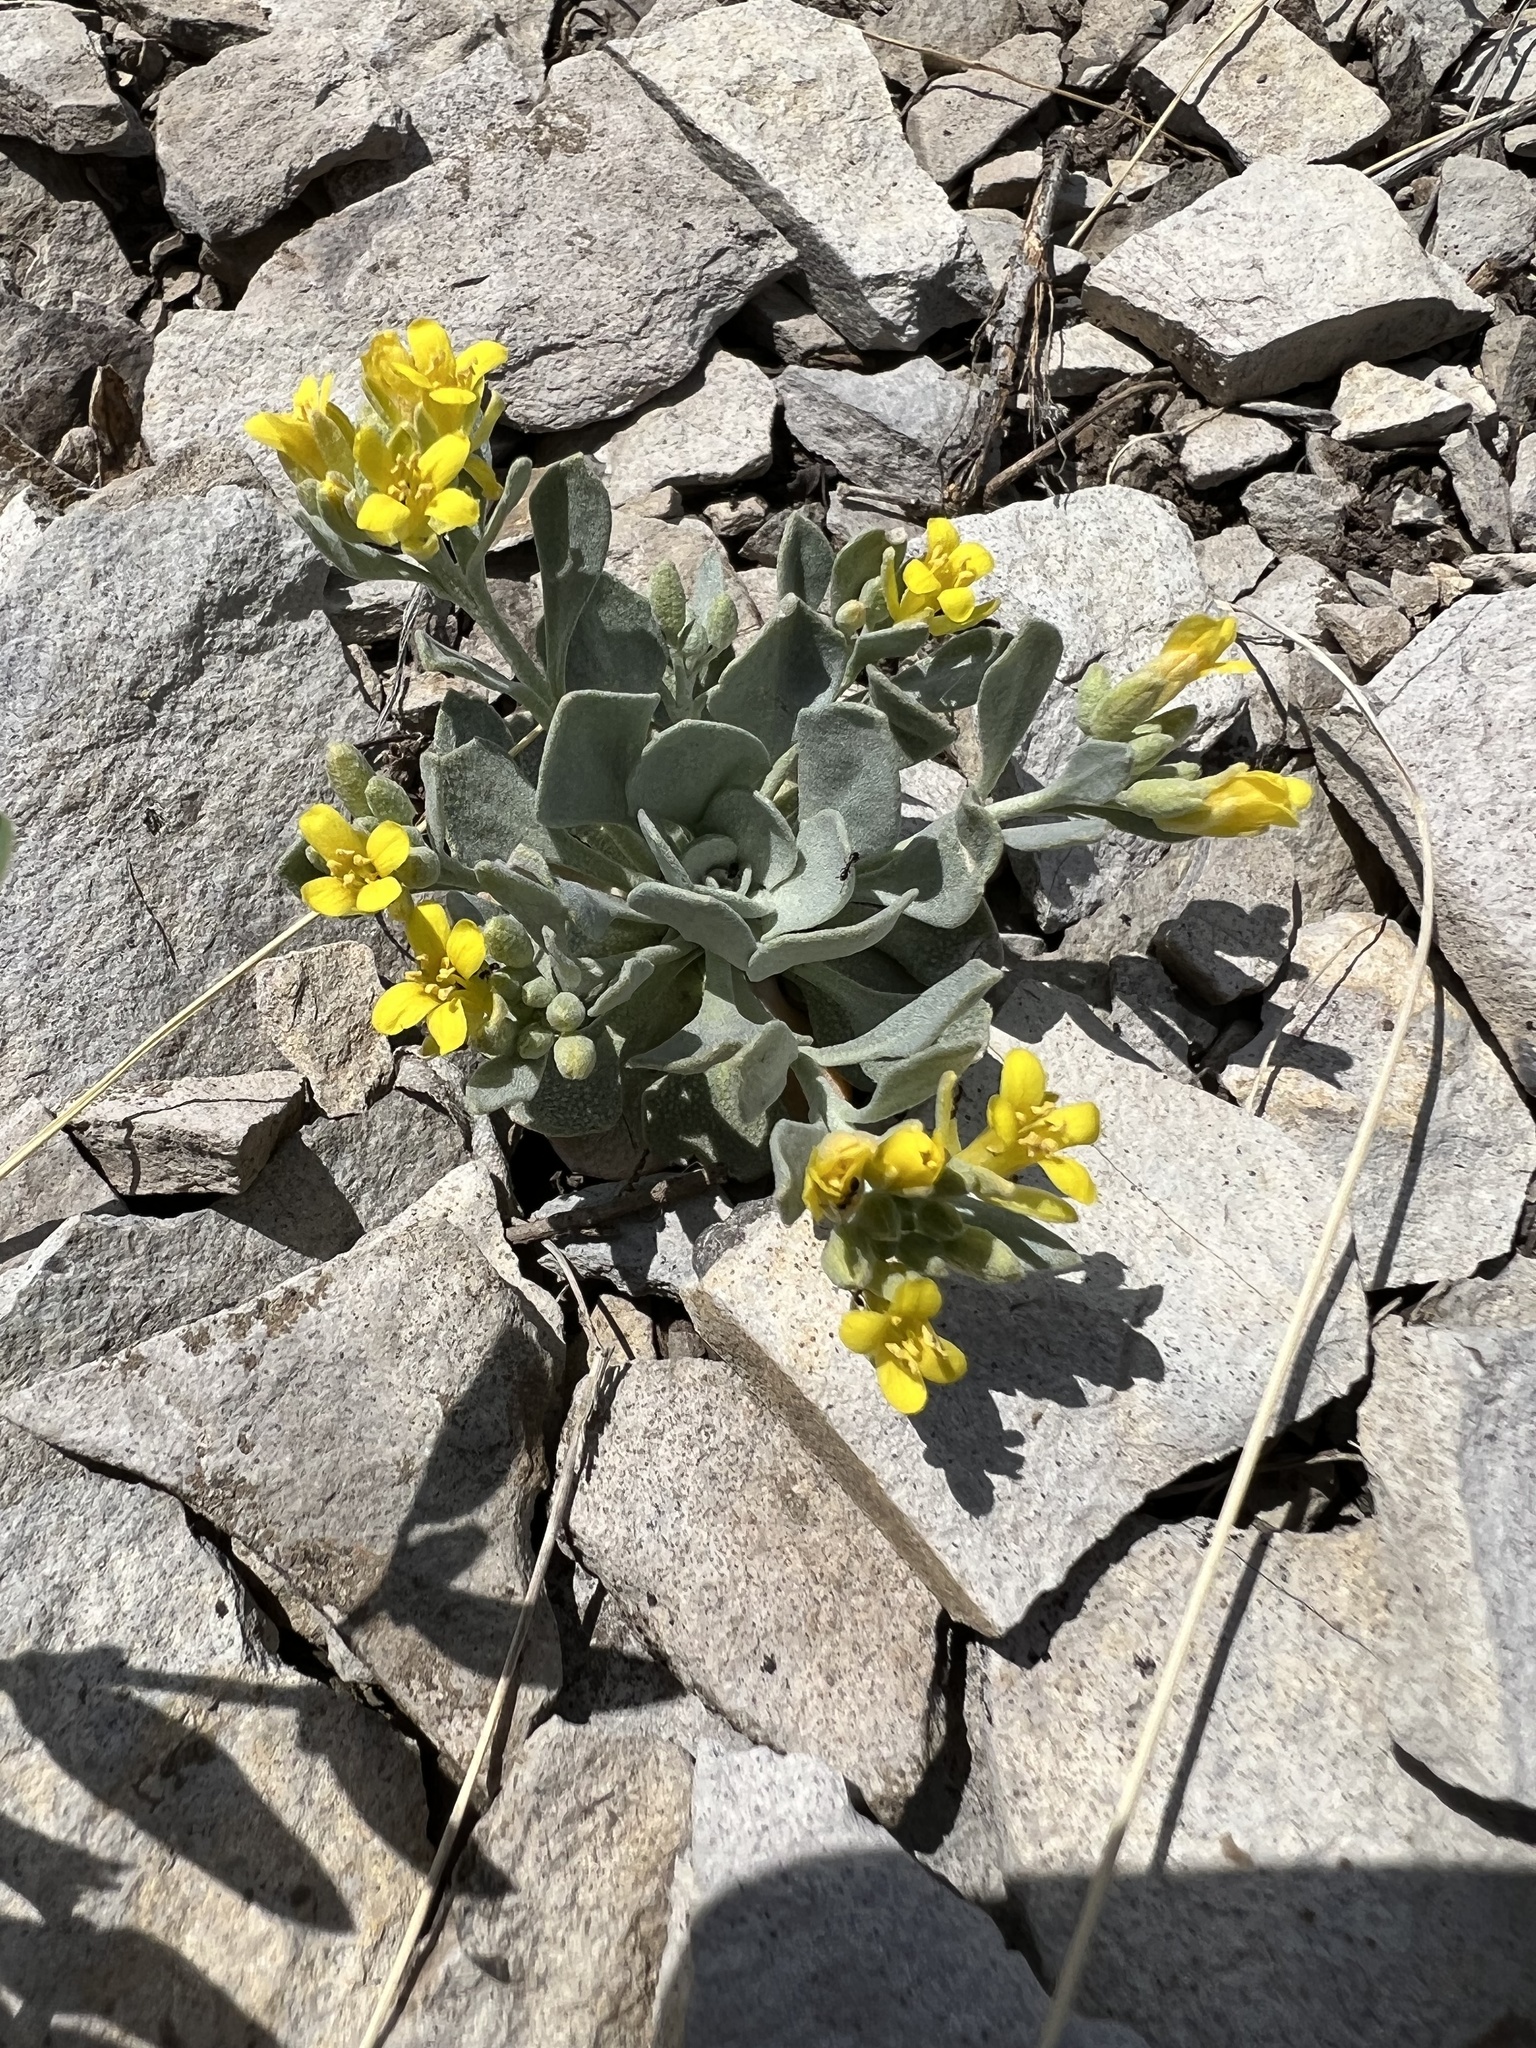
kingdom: Plantae
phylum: Tracheophyta
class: Magnoliopsida
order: Brassicales
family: Brassicaceae
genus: Physaria
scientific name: Physaria bellii
